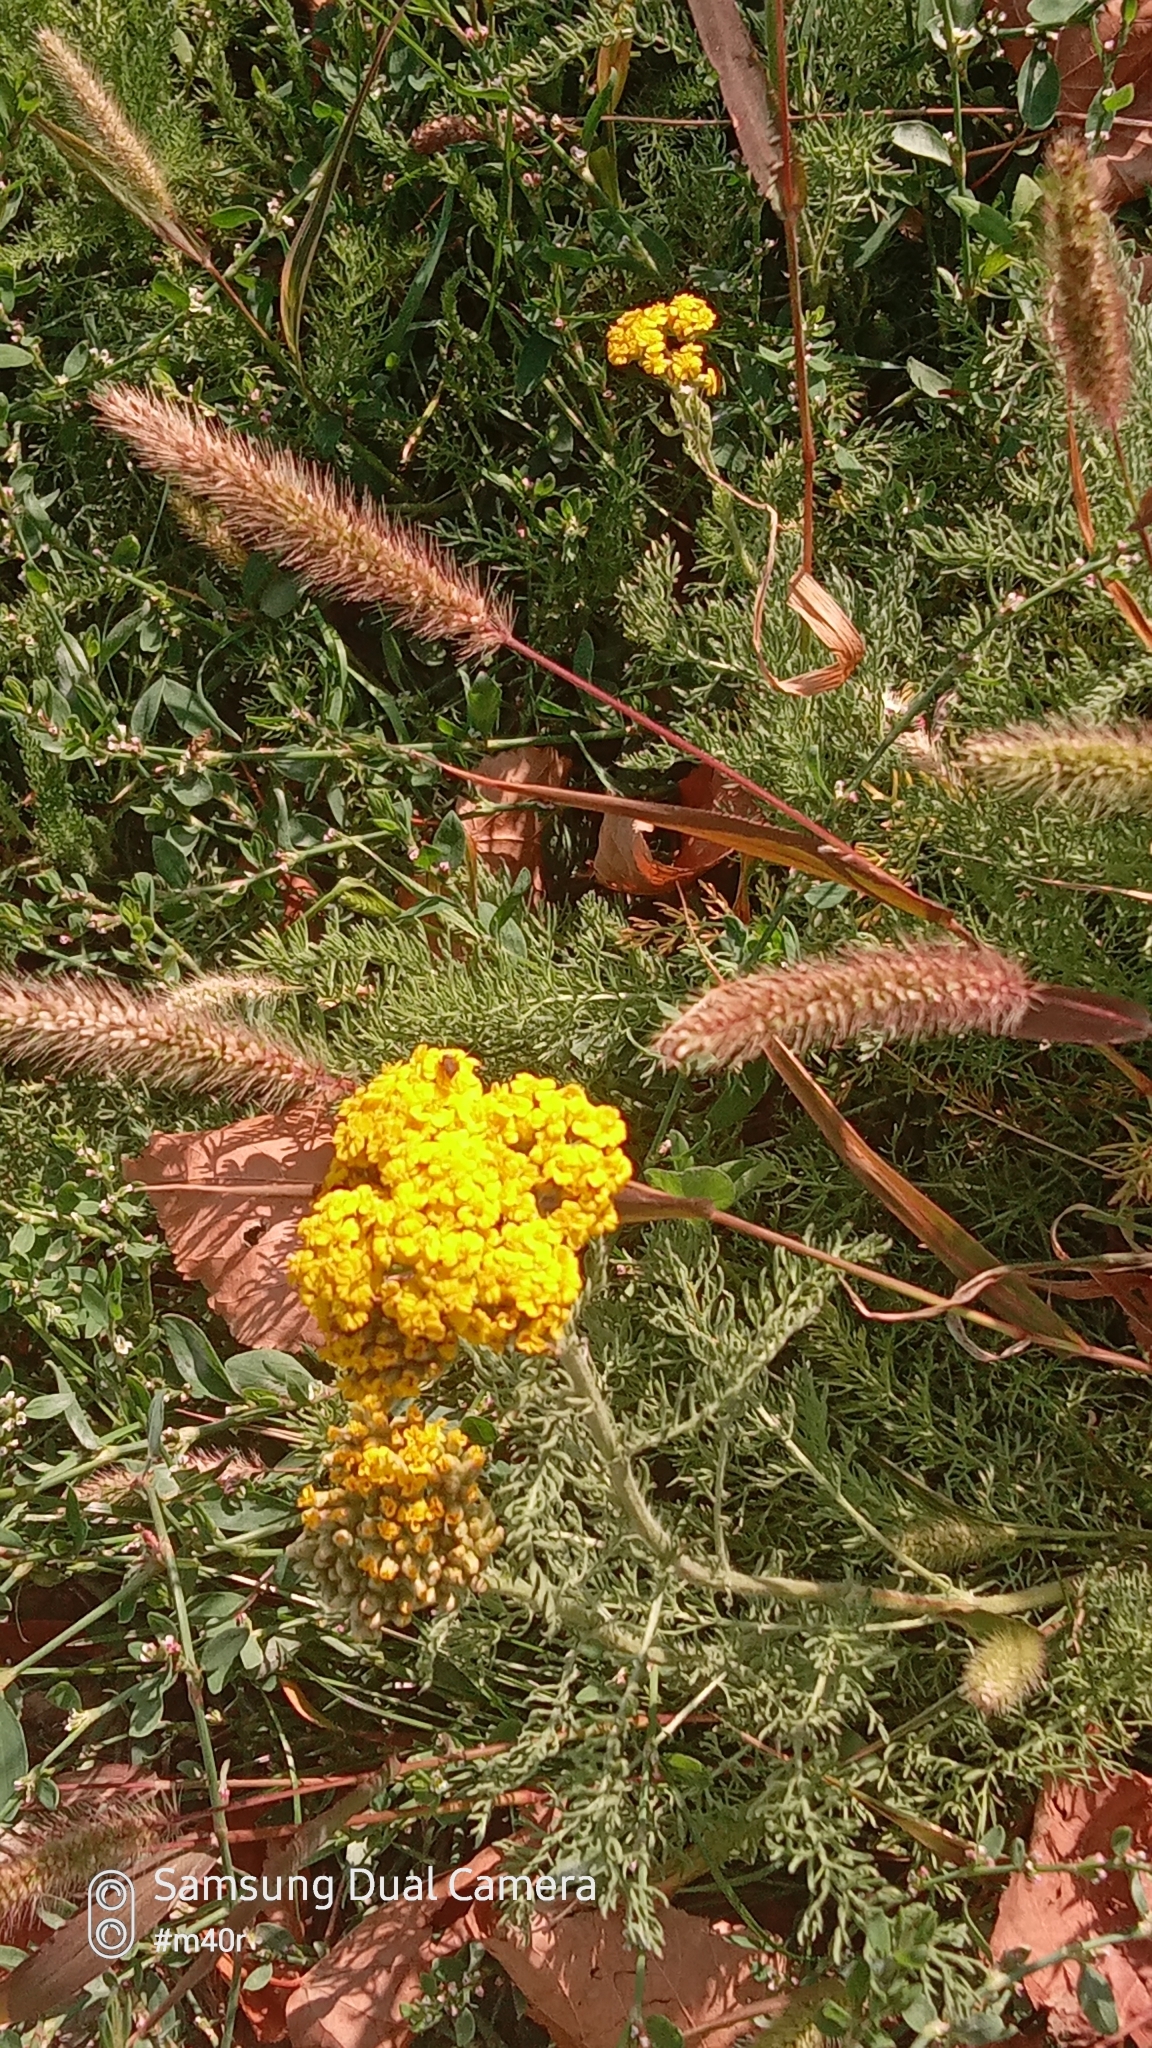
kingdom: Plantae
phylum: Tracheophyta
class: Magnoliopsida
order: Asterales
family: Asteraceae
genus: Achillea
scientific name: Achillea arabica
